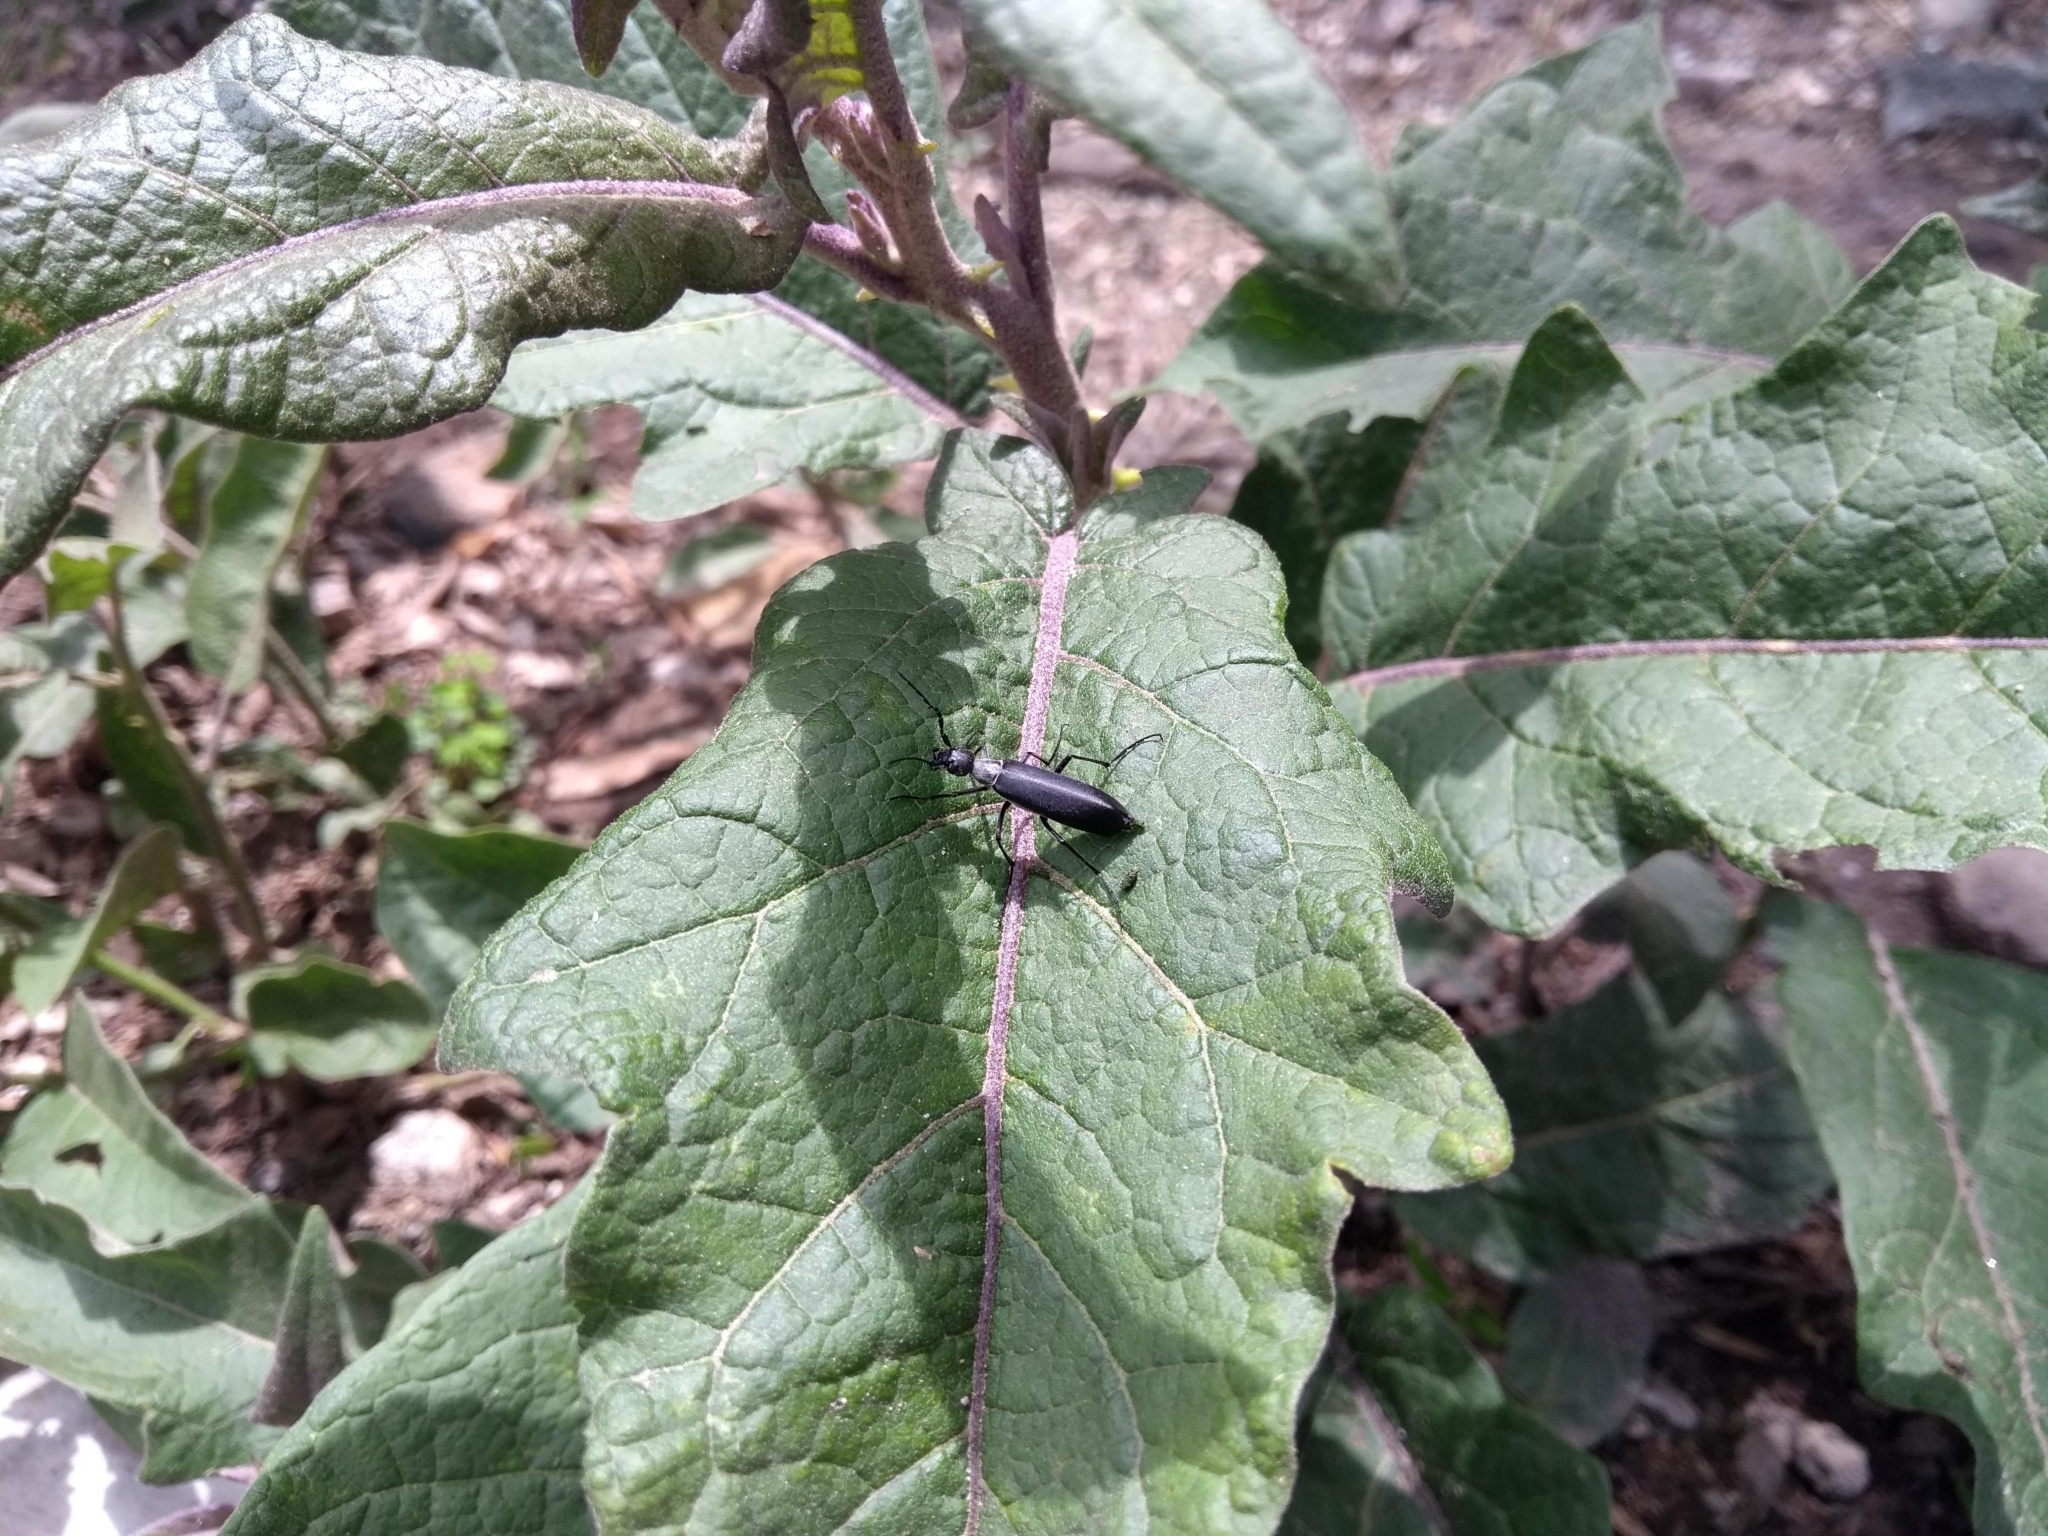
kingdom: Animalia
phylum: Arthropoda
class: Insecta
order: Coleoptera
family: Meloidae
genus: Epicauta
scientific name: Epicauta curvicornis
